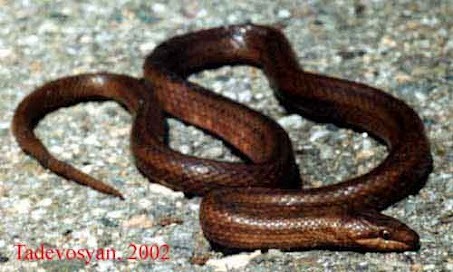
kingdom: Animalia
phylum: Chordata
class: Squamata
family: Colubridae
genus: Coronella
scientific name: Coronella austriaca
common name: Smooth snake
